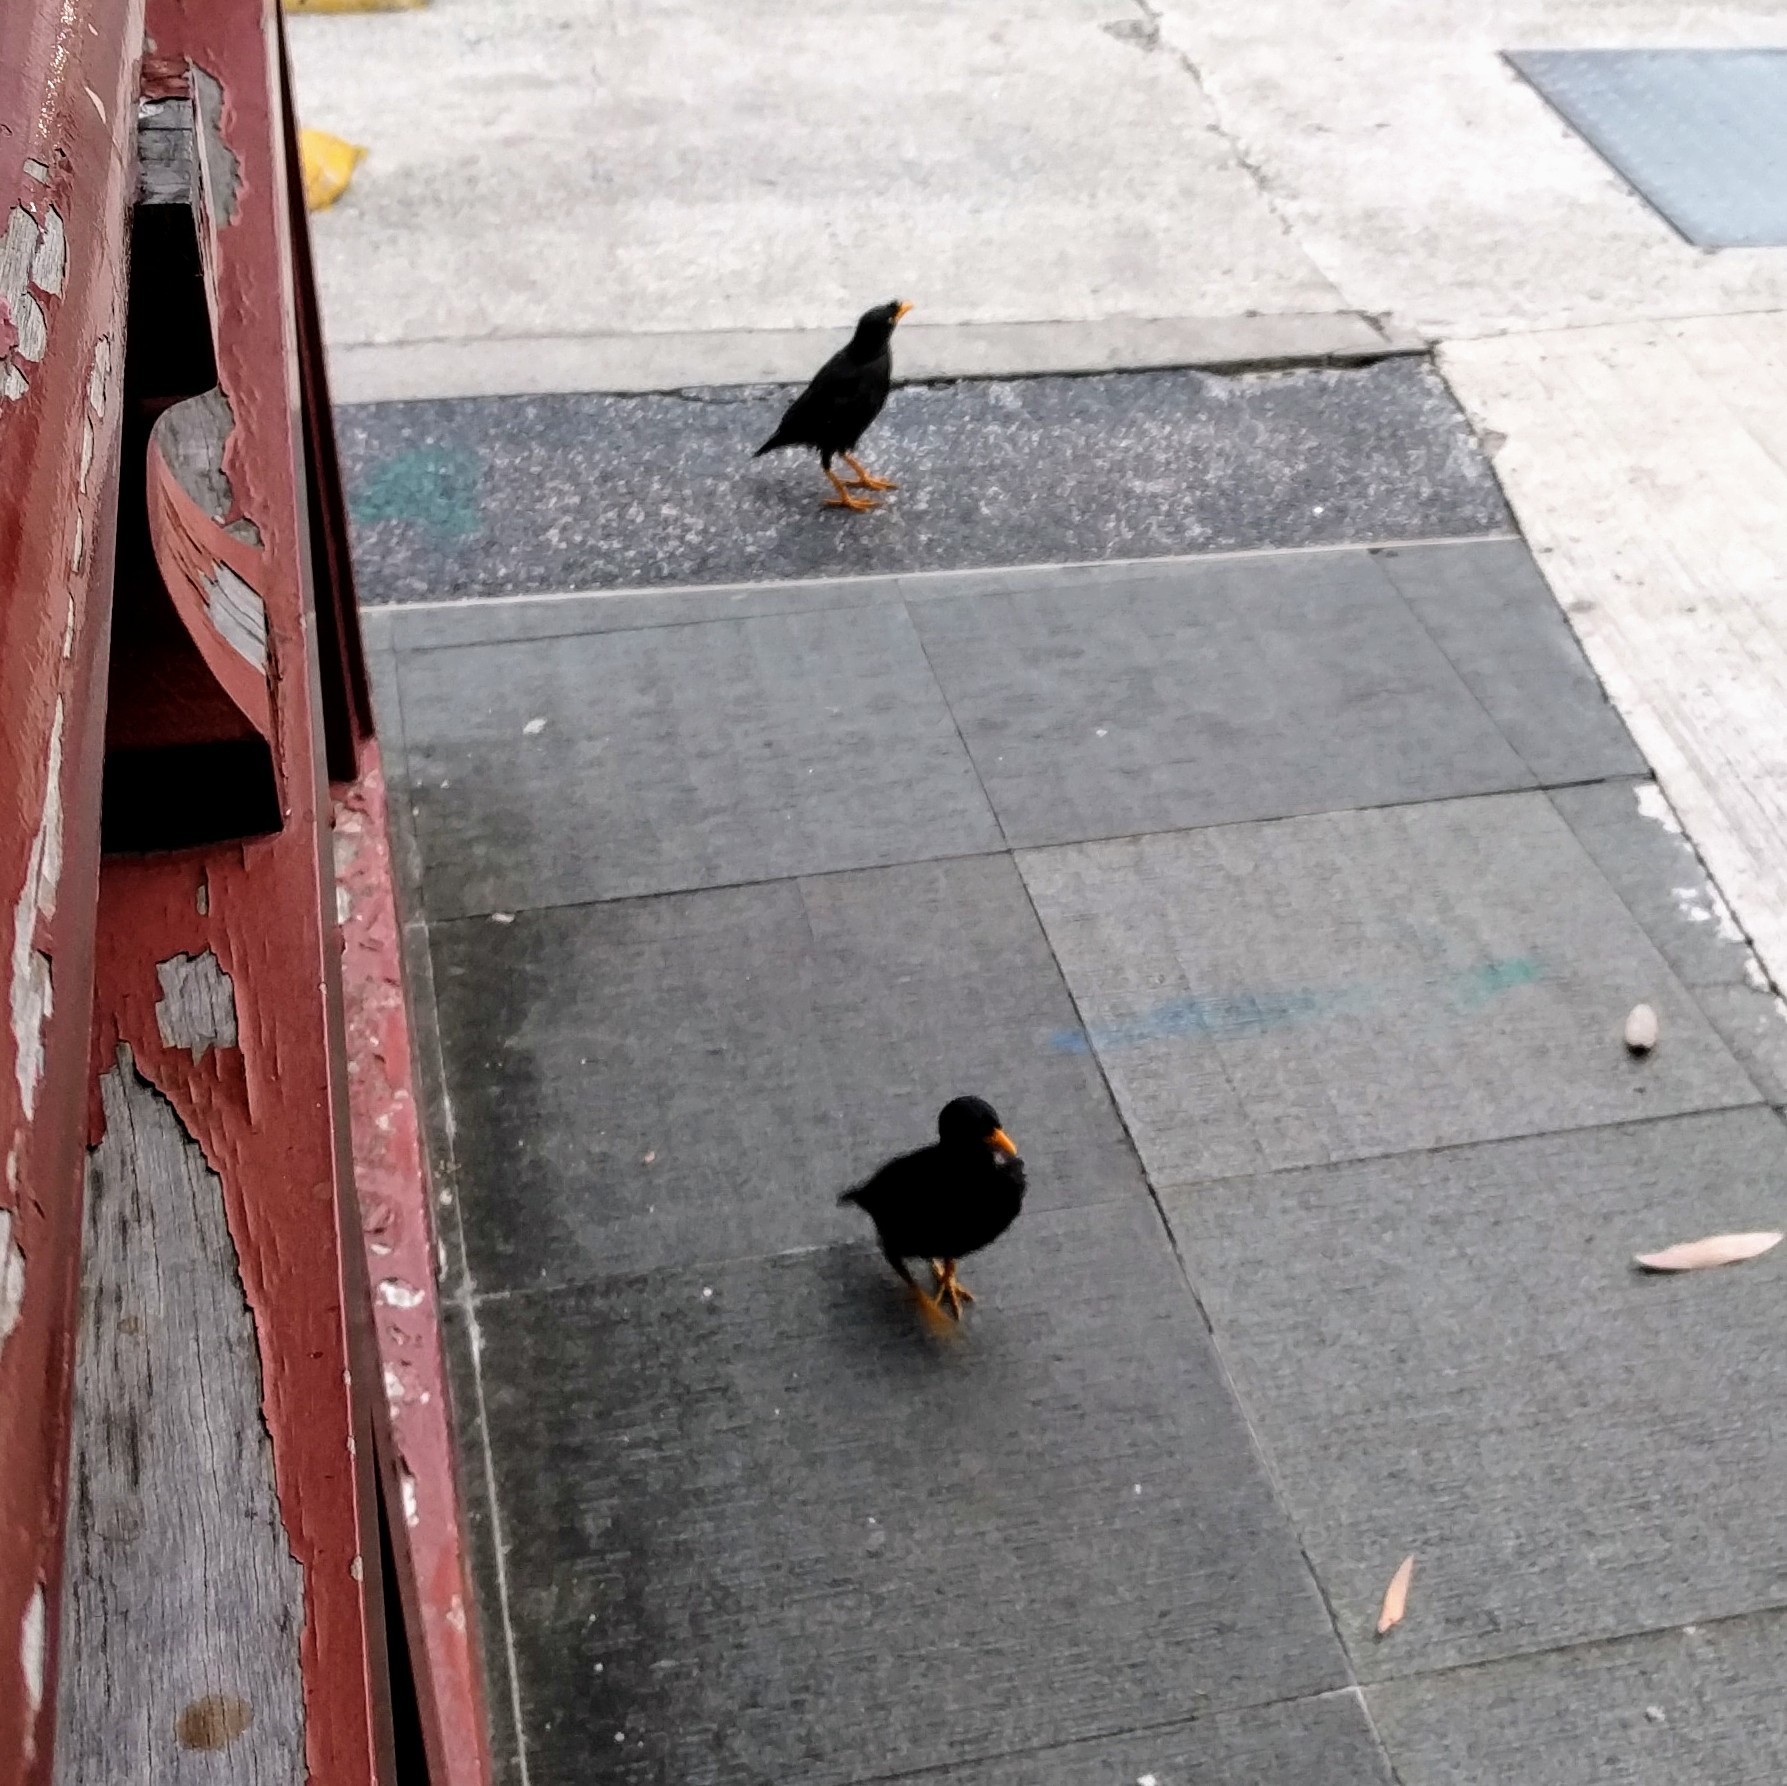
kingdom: Animalia
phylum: Chordata
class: Aves
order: Passeriformes
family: Sturnidae
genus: Acridotheres
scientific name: Acridotheres javanicus
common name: Javan myna
